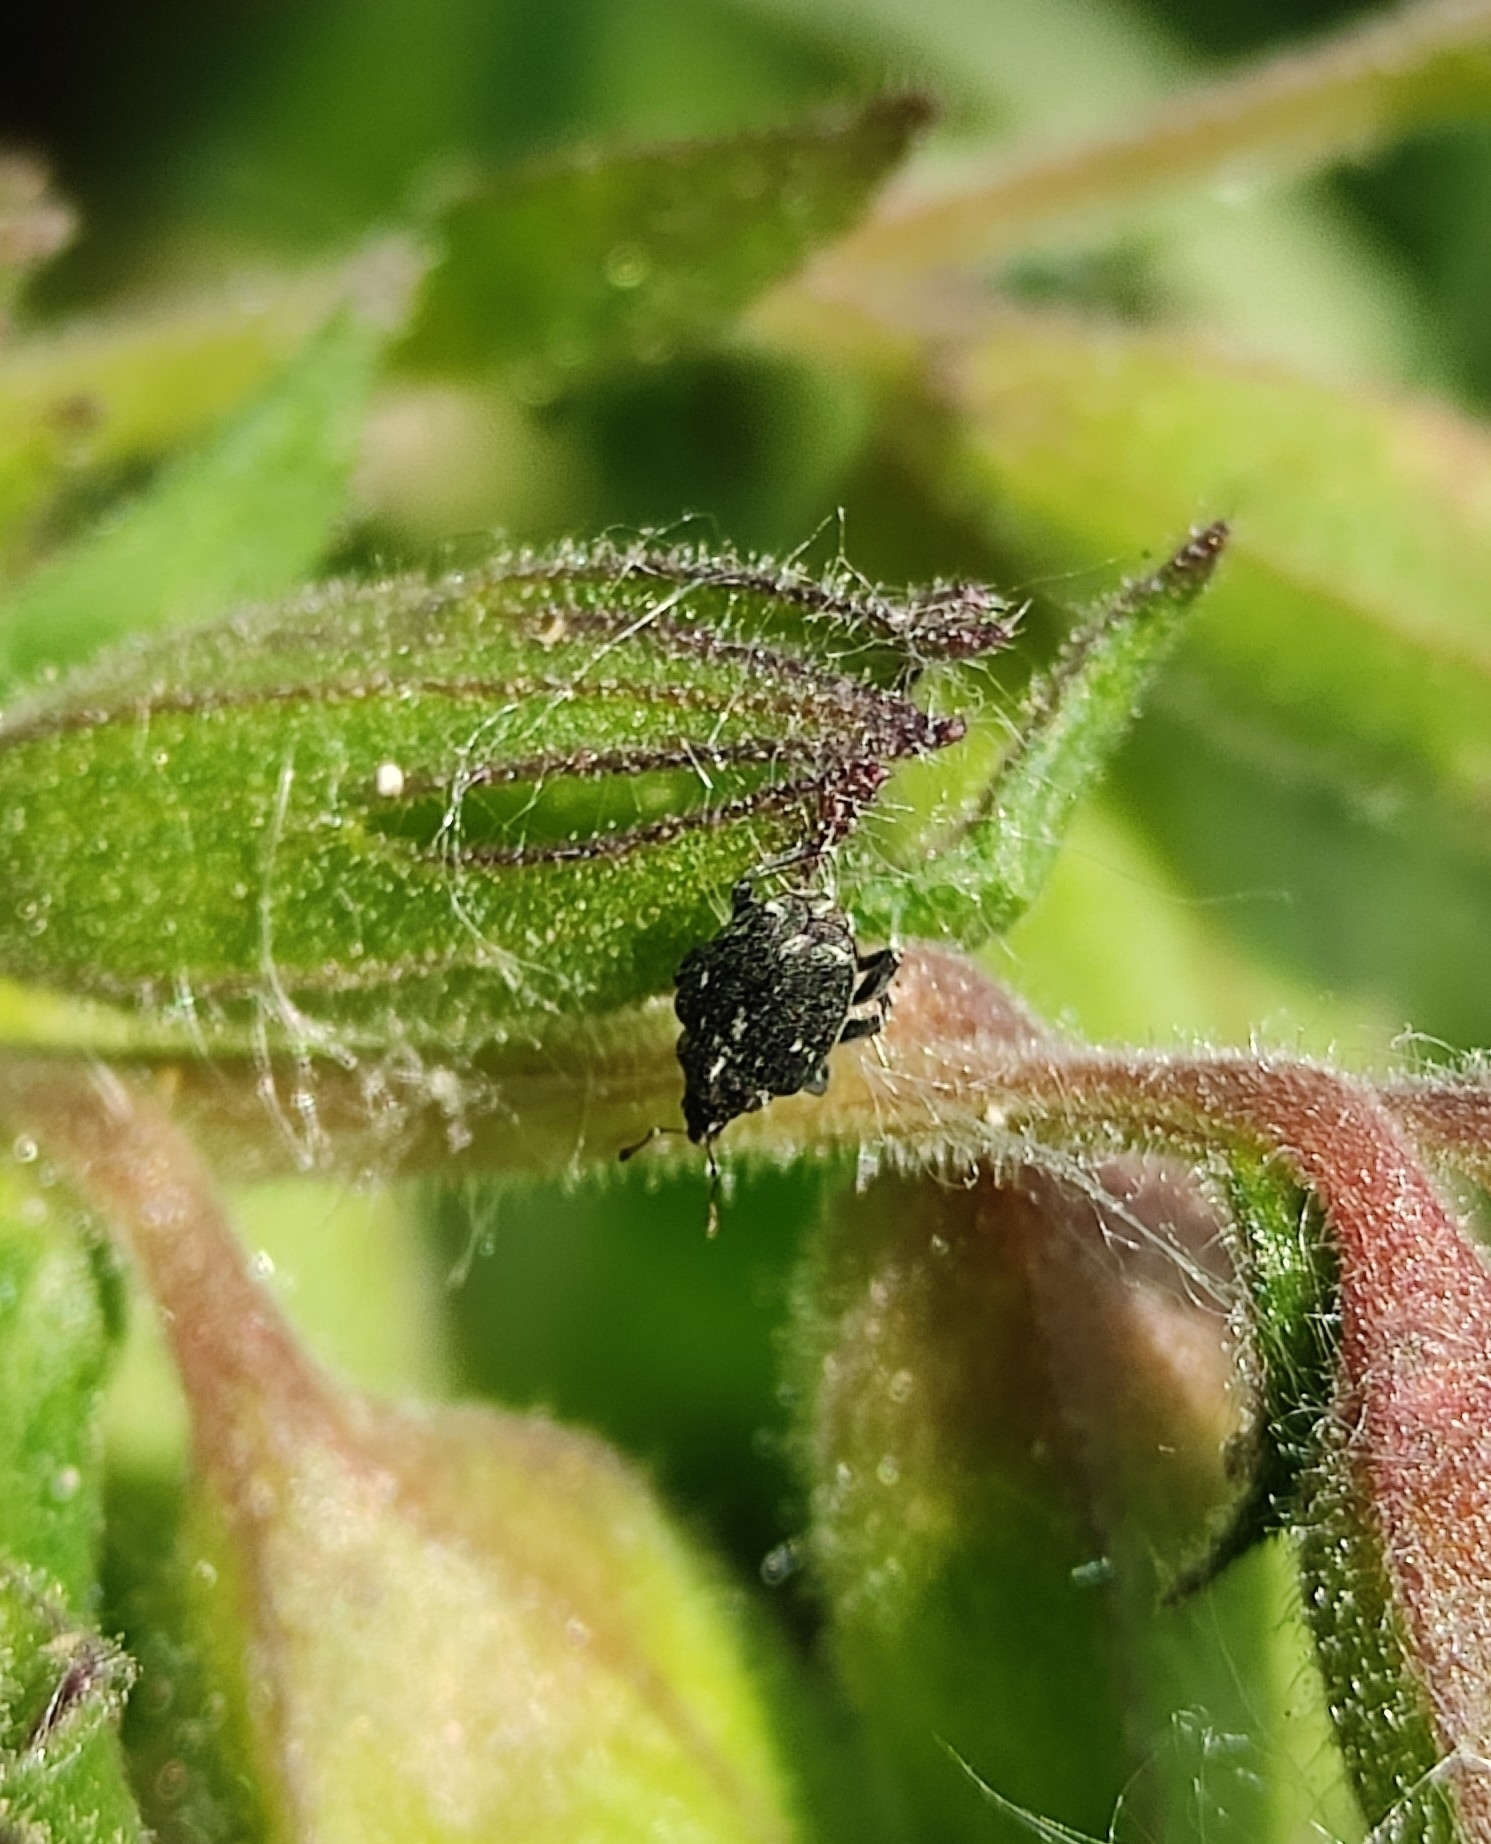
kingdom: Animalia
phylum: Arthropoda
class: Insecta
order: Coleoptera
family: Curculionidae
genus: Mogulones
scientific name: Mogulones pallidicornis
